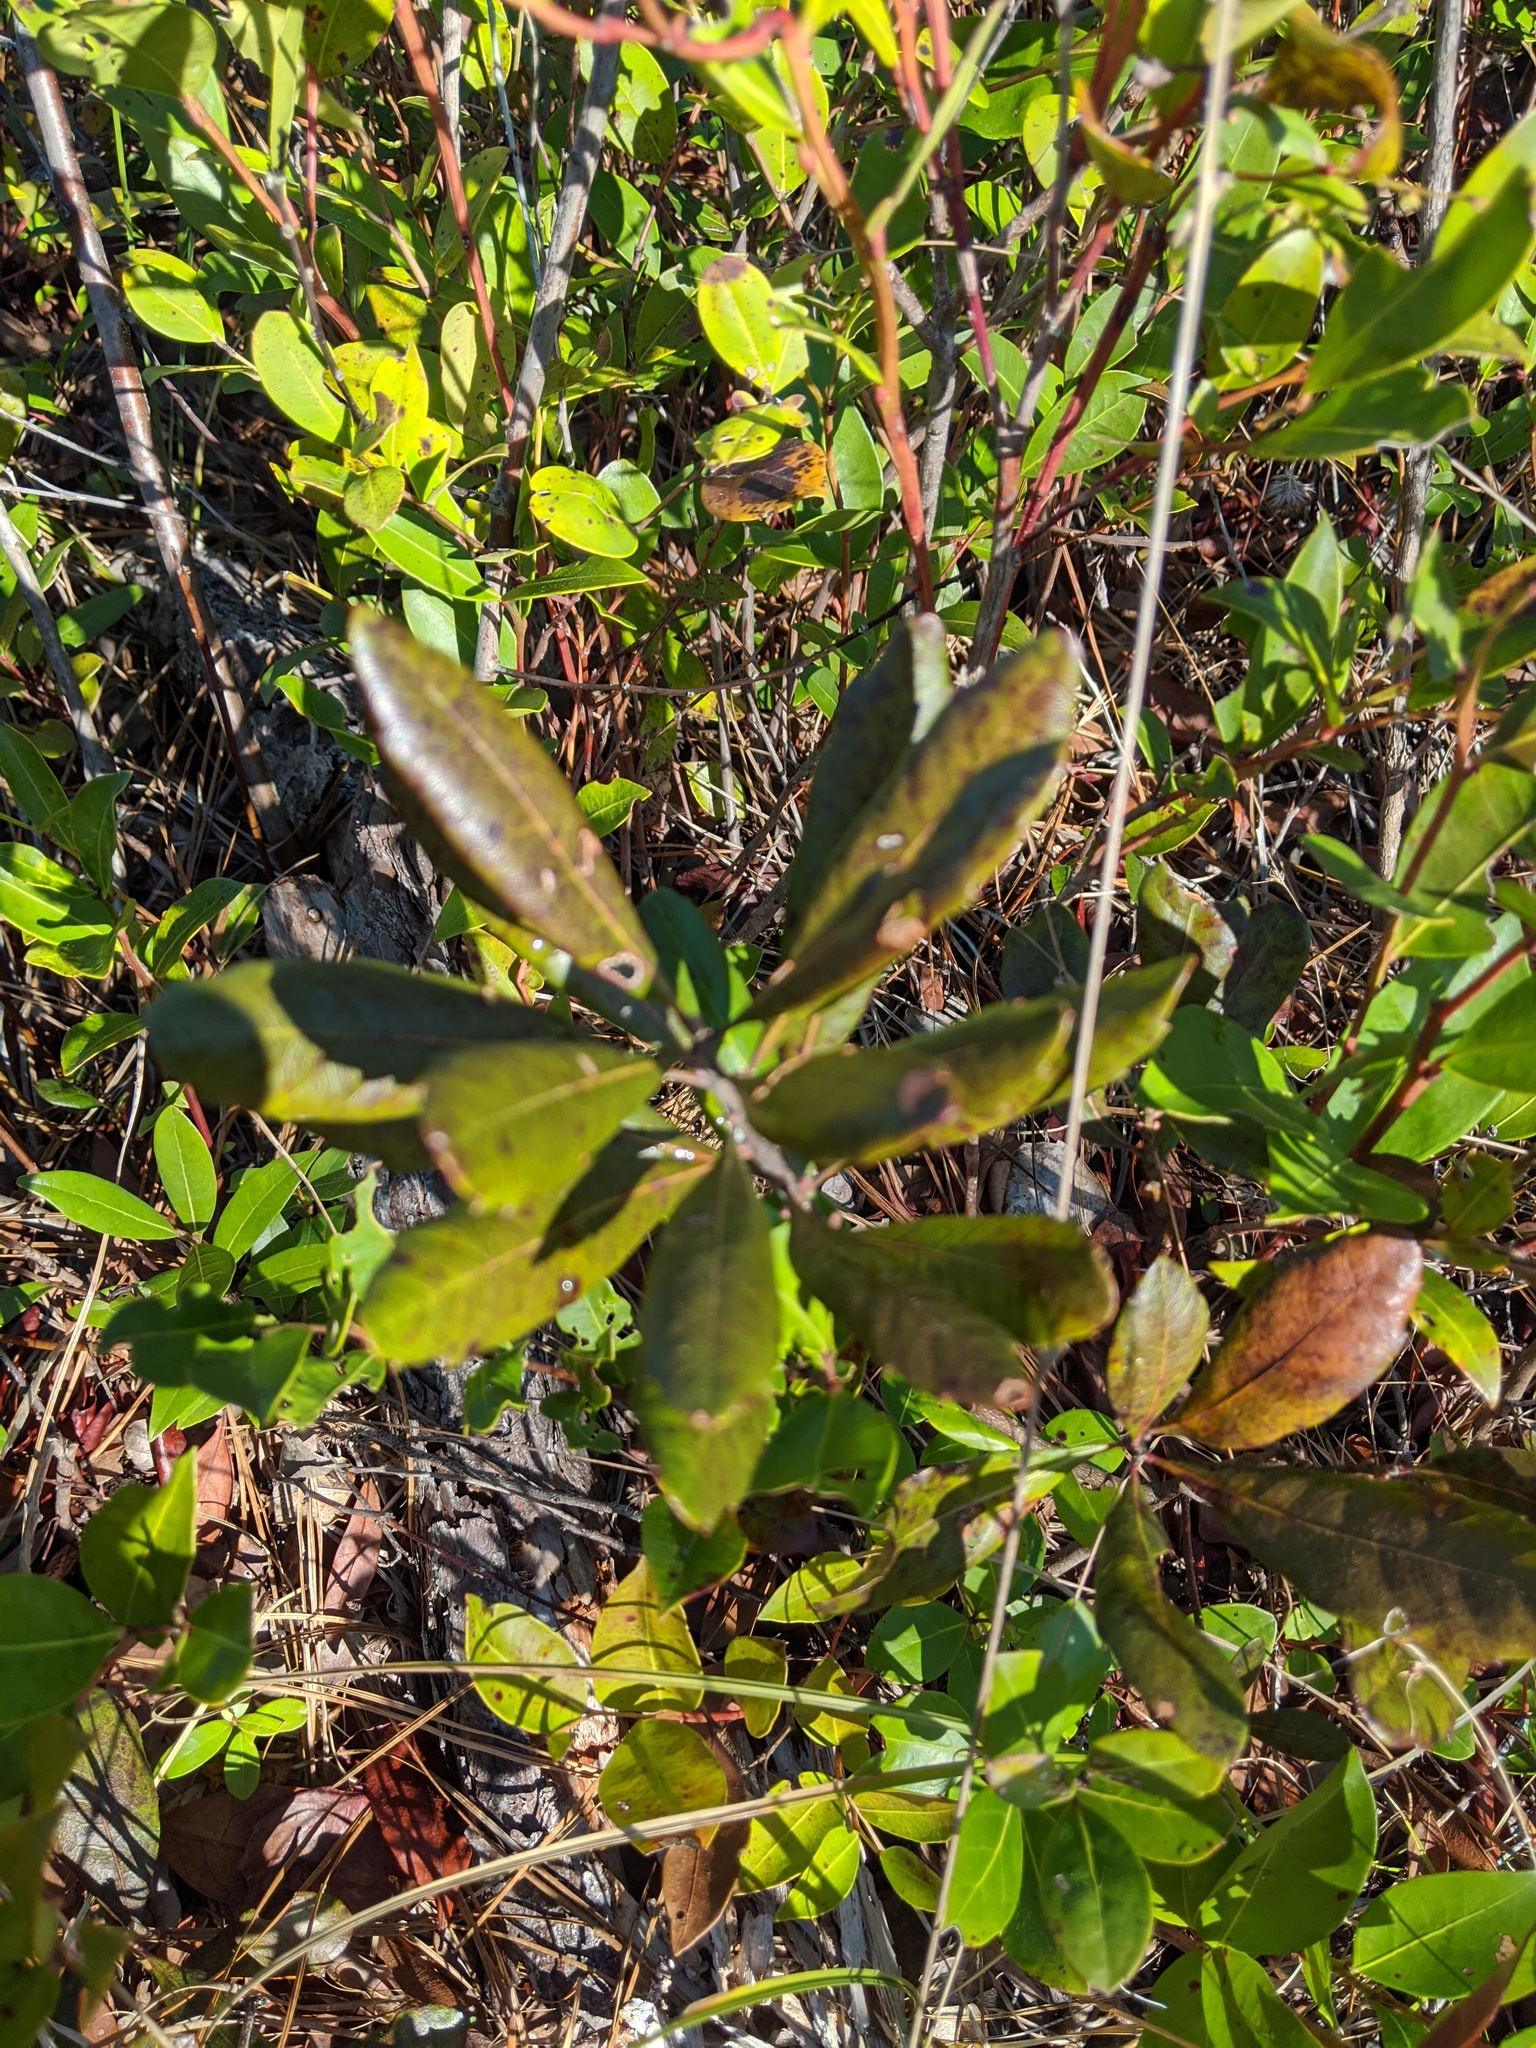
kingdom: Plantae
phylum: Tracheophyta
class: Magnoliopsida
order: Fagales
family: Myricaceae
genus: Morella
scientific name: Morella caroliniensis
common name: Evergreen bayberry
